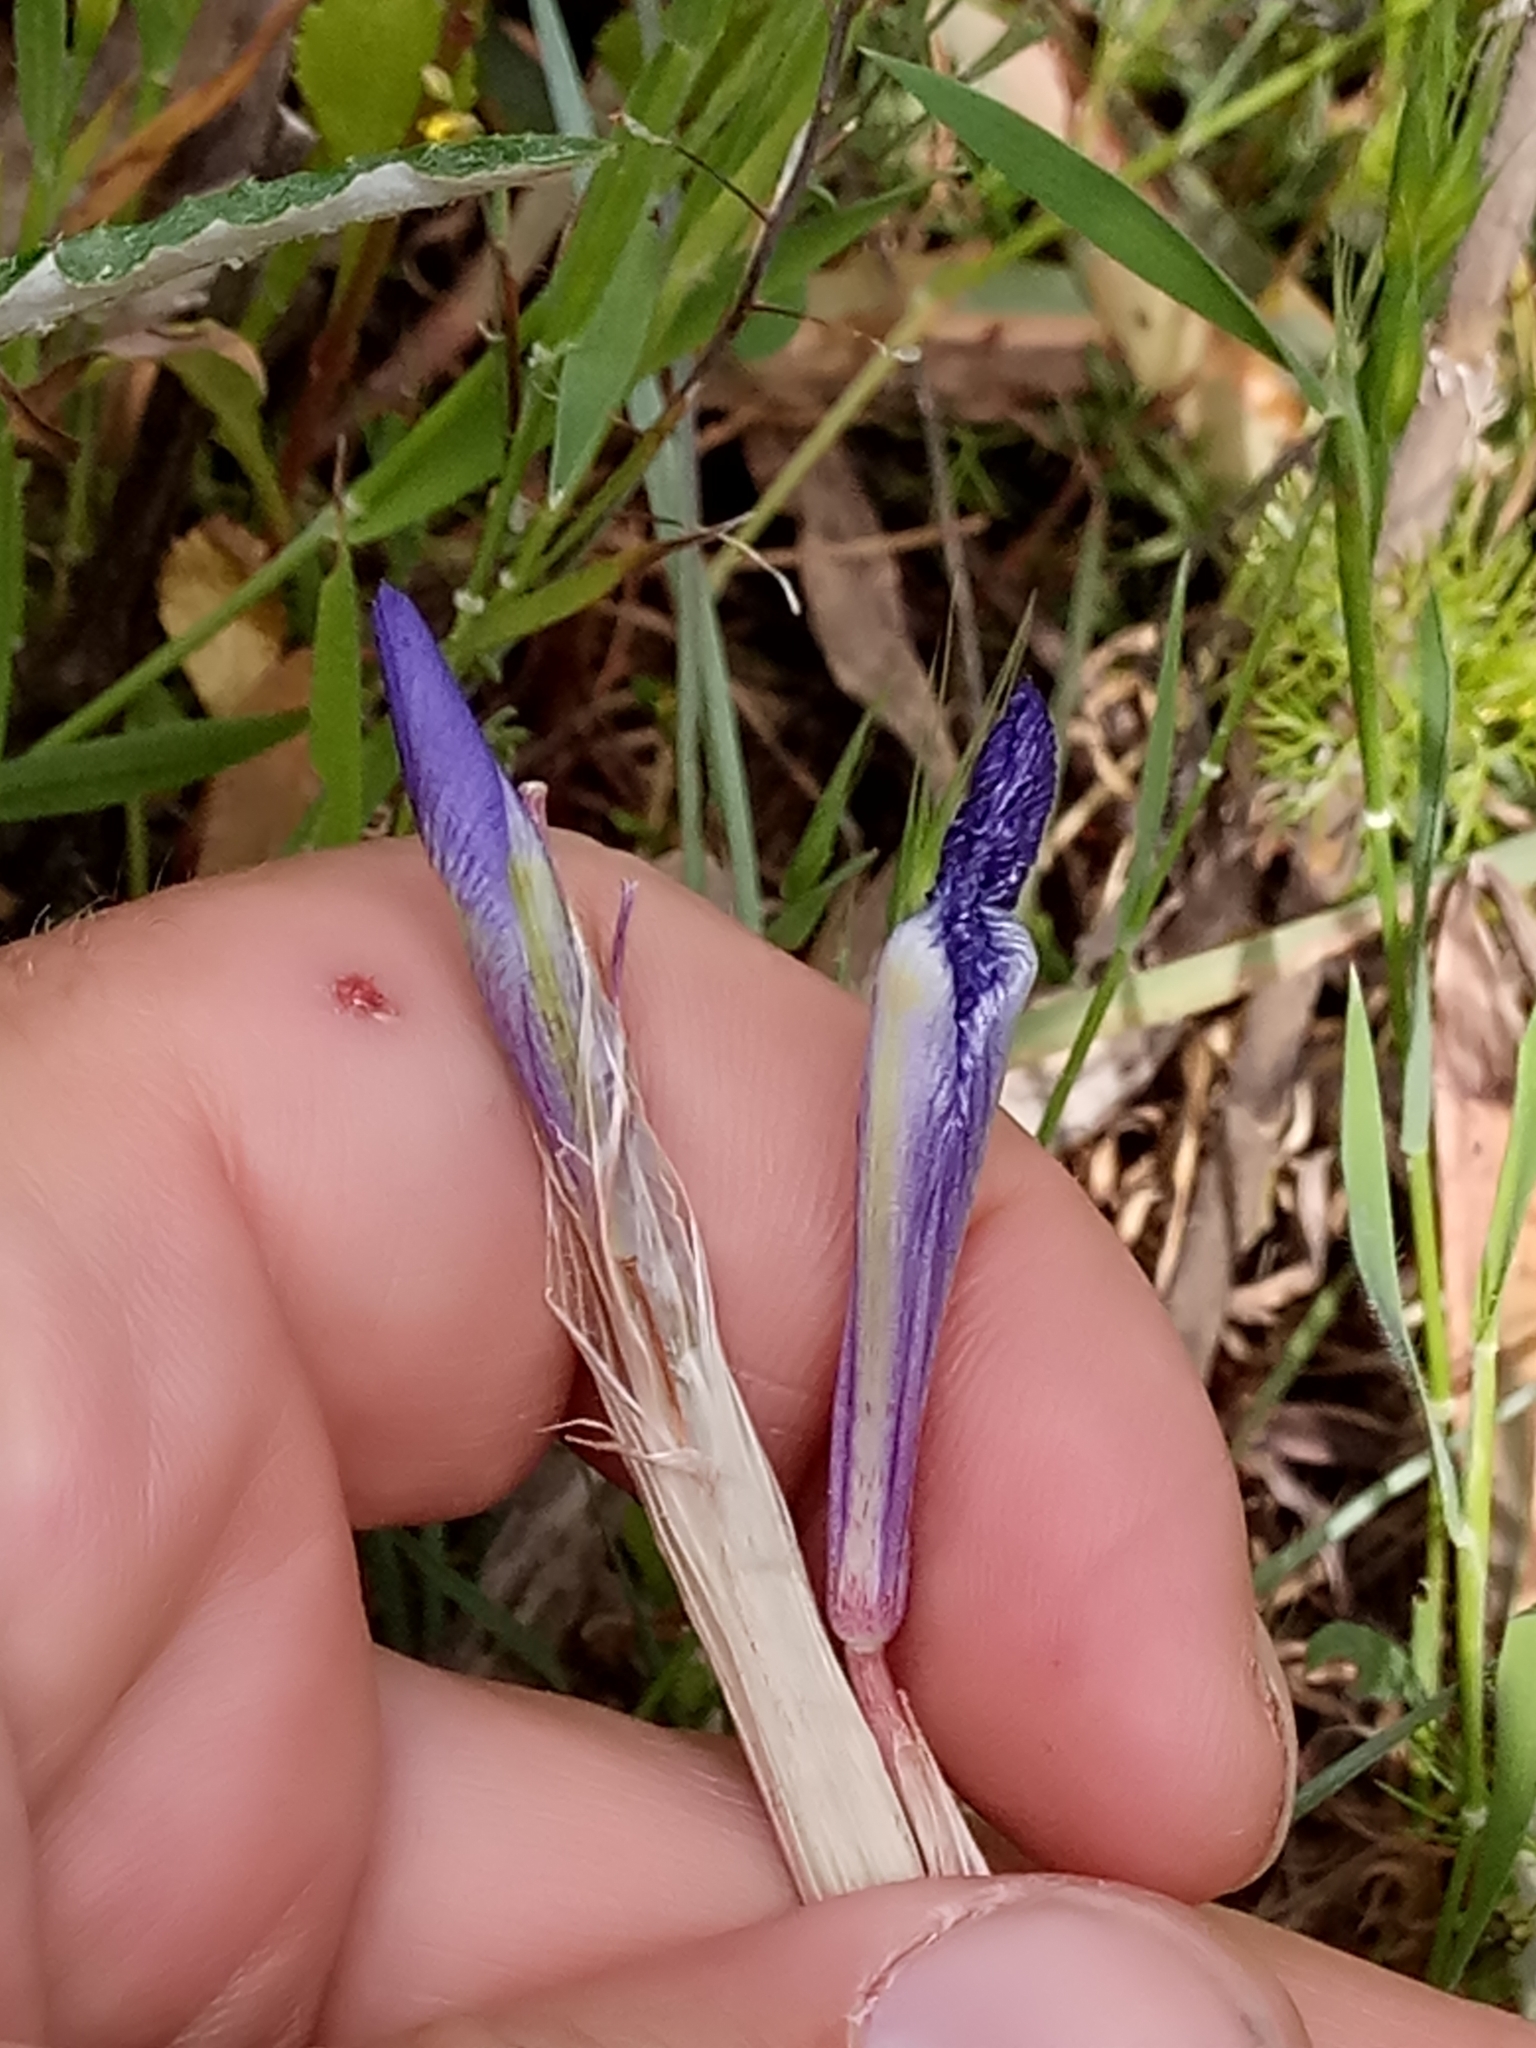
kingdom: Plantae
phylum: Tracheophyta
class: Liliopsida
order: Asparagales
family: Iridaceae
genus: Moraea
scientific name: Moraea sisyrinchium
